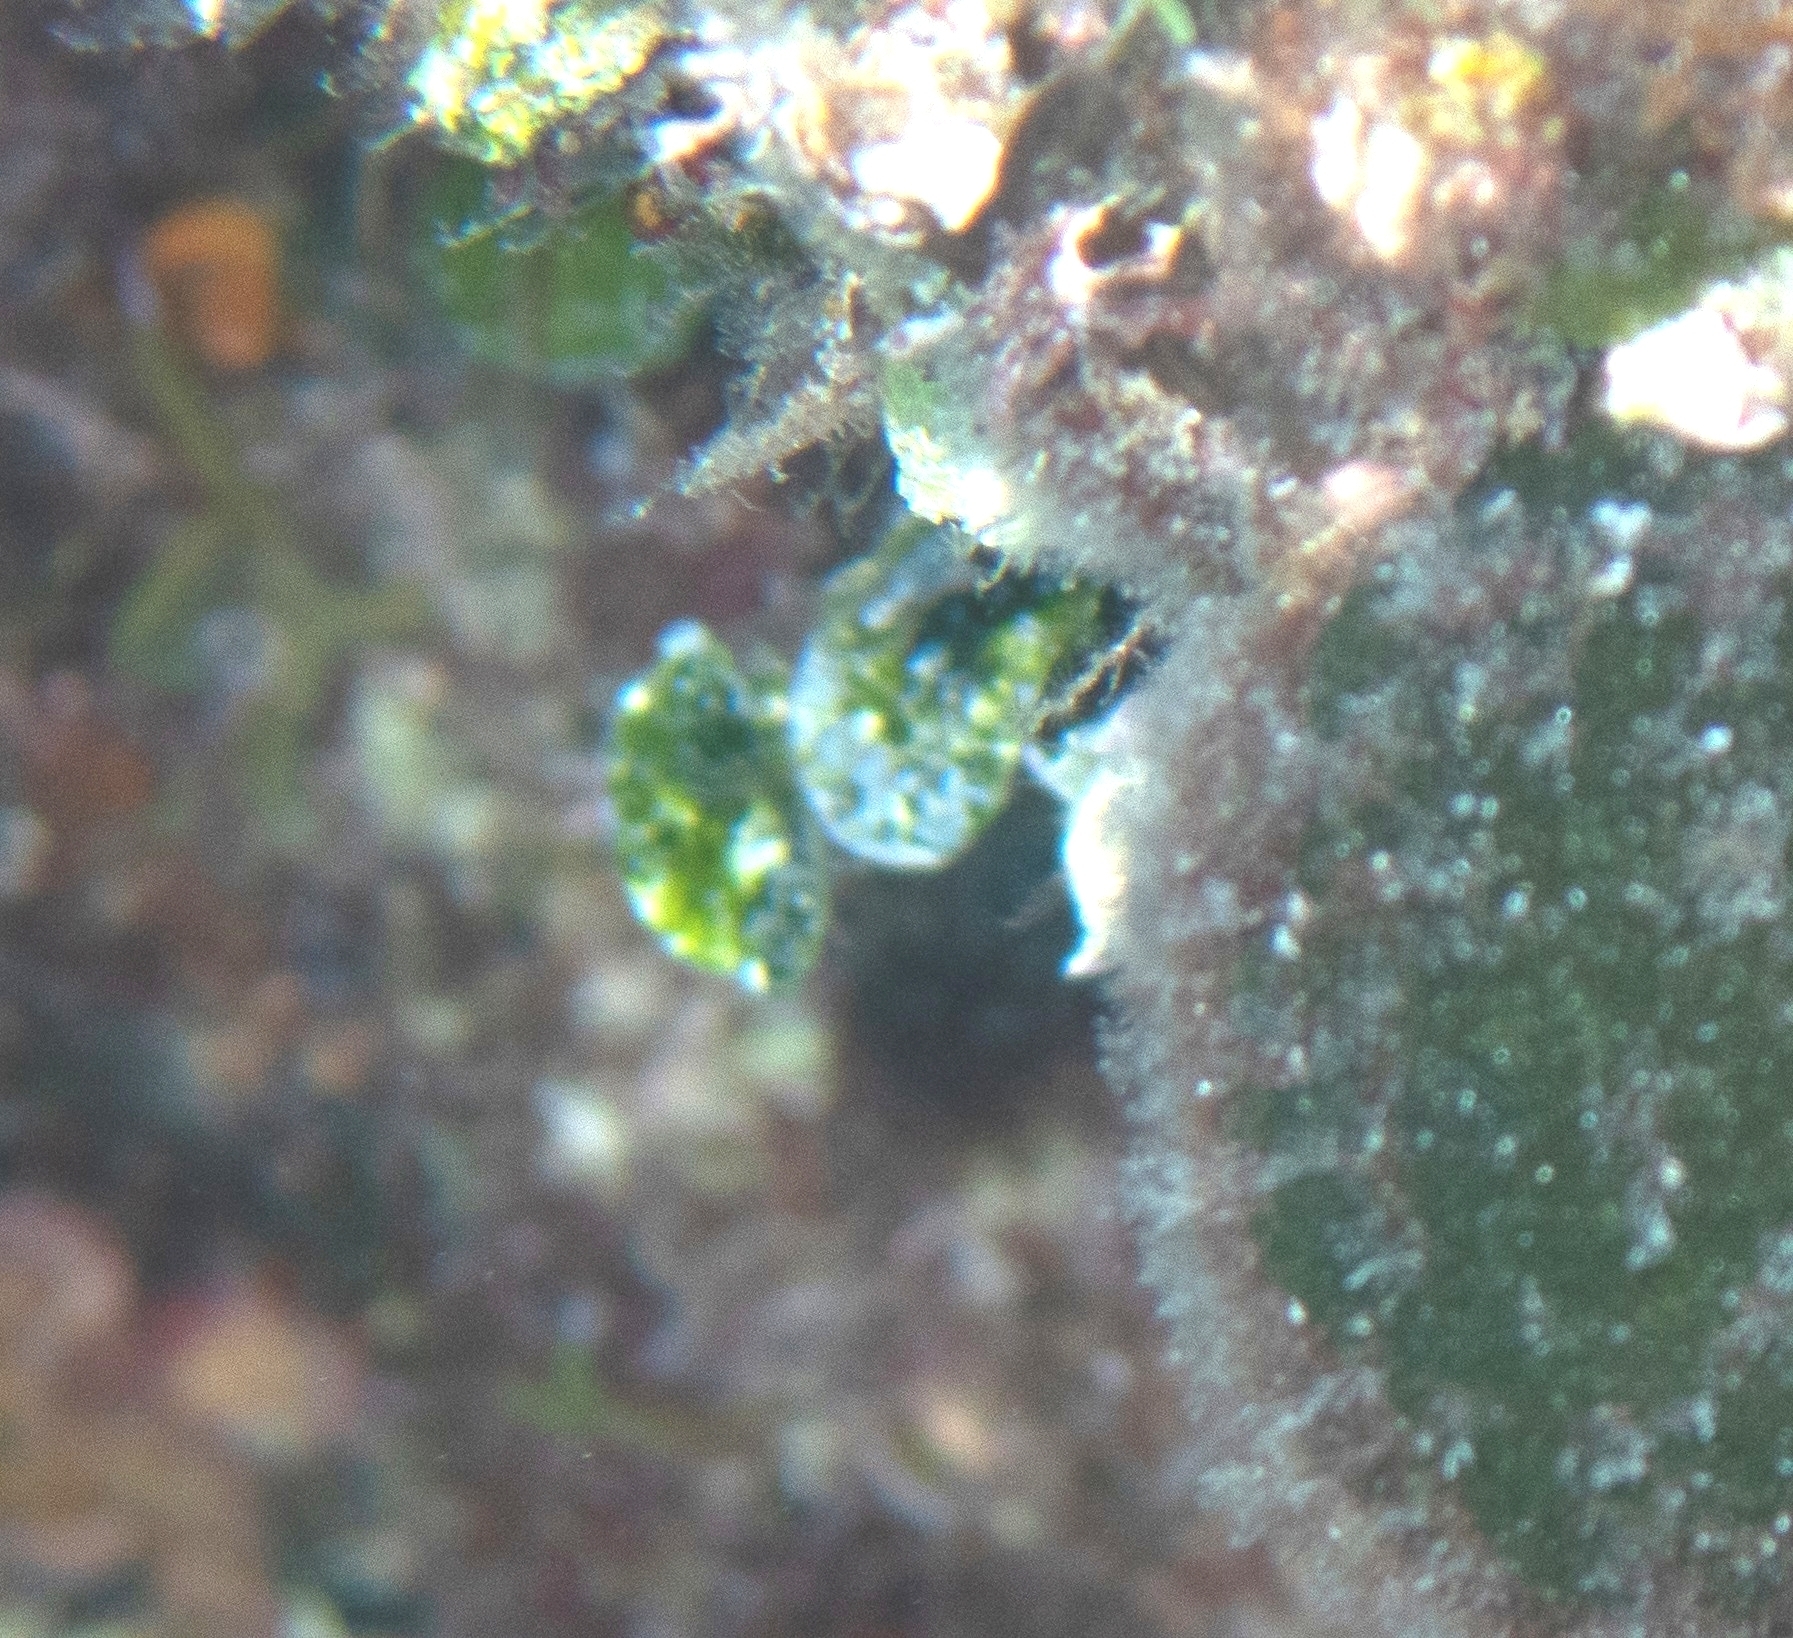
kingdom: Plantae
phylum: Chlorophyta
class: Ulvophyceae
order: Bryopsidales
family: Halimedaceae
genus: Halimeda
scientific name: Halimeda tuna
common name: Stalked lettuce leaf algae
